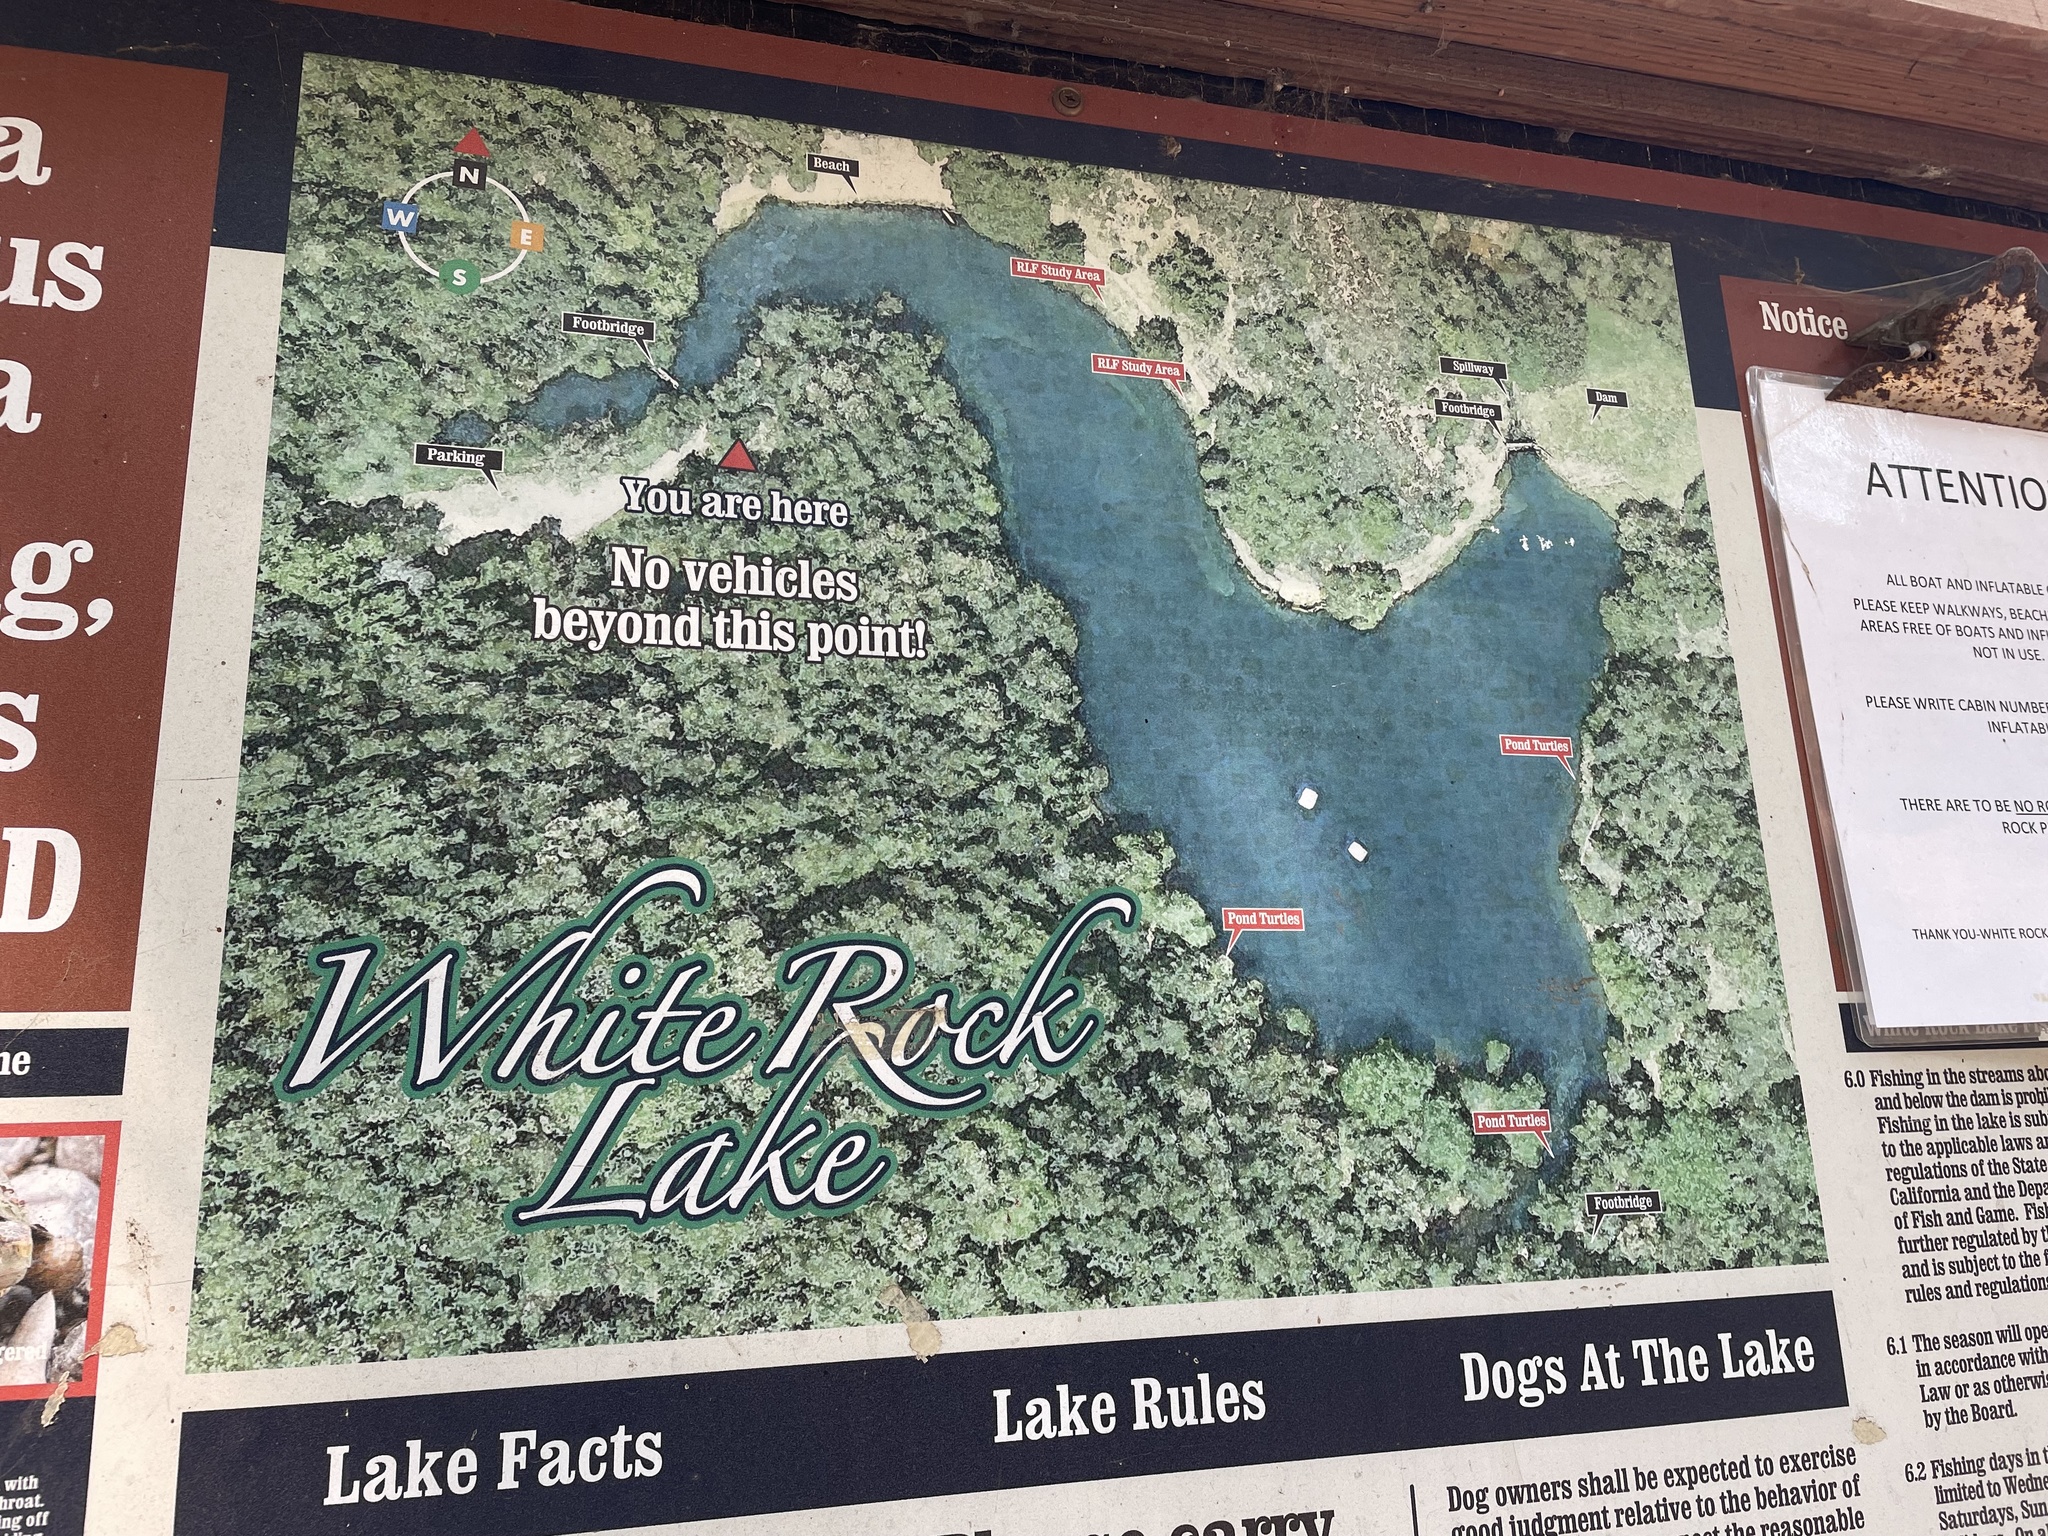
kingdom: Plantae
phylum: Tracheophyta
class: Pinopsida
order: Pinales
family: Cupressaceae
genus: Sequoia
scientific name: Sequoia sempervirens
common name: Coast redwood
